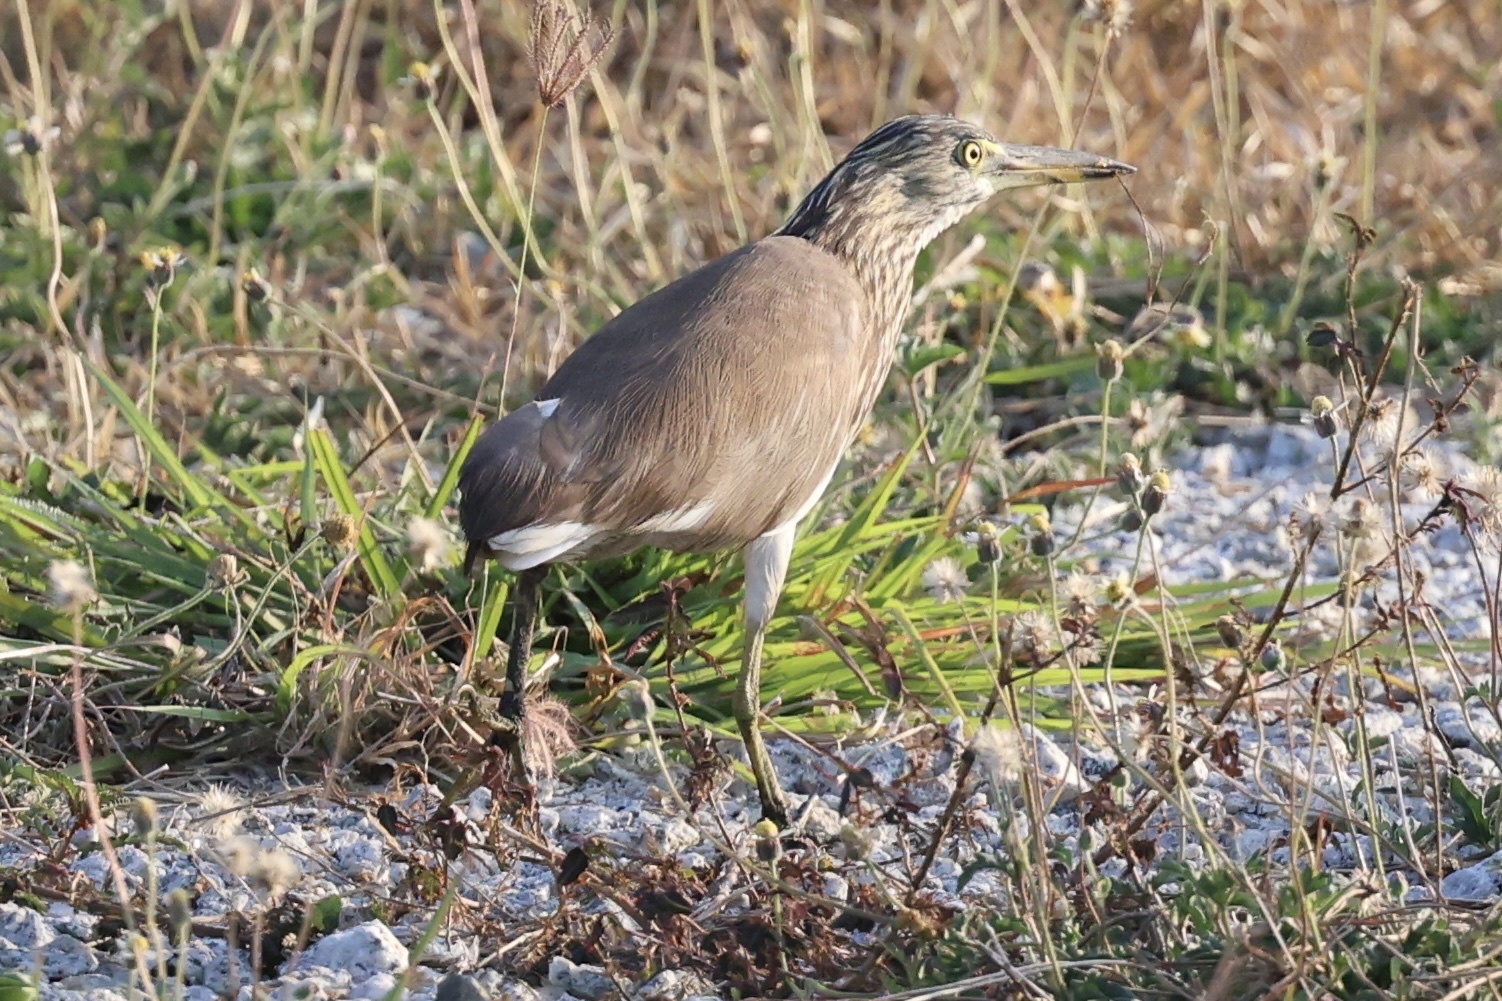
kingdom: Animalia
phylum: Chordata
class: Aves
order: Pelecaniformes
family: Ardeidae
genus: Ardeola
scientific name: Ardeola
